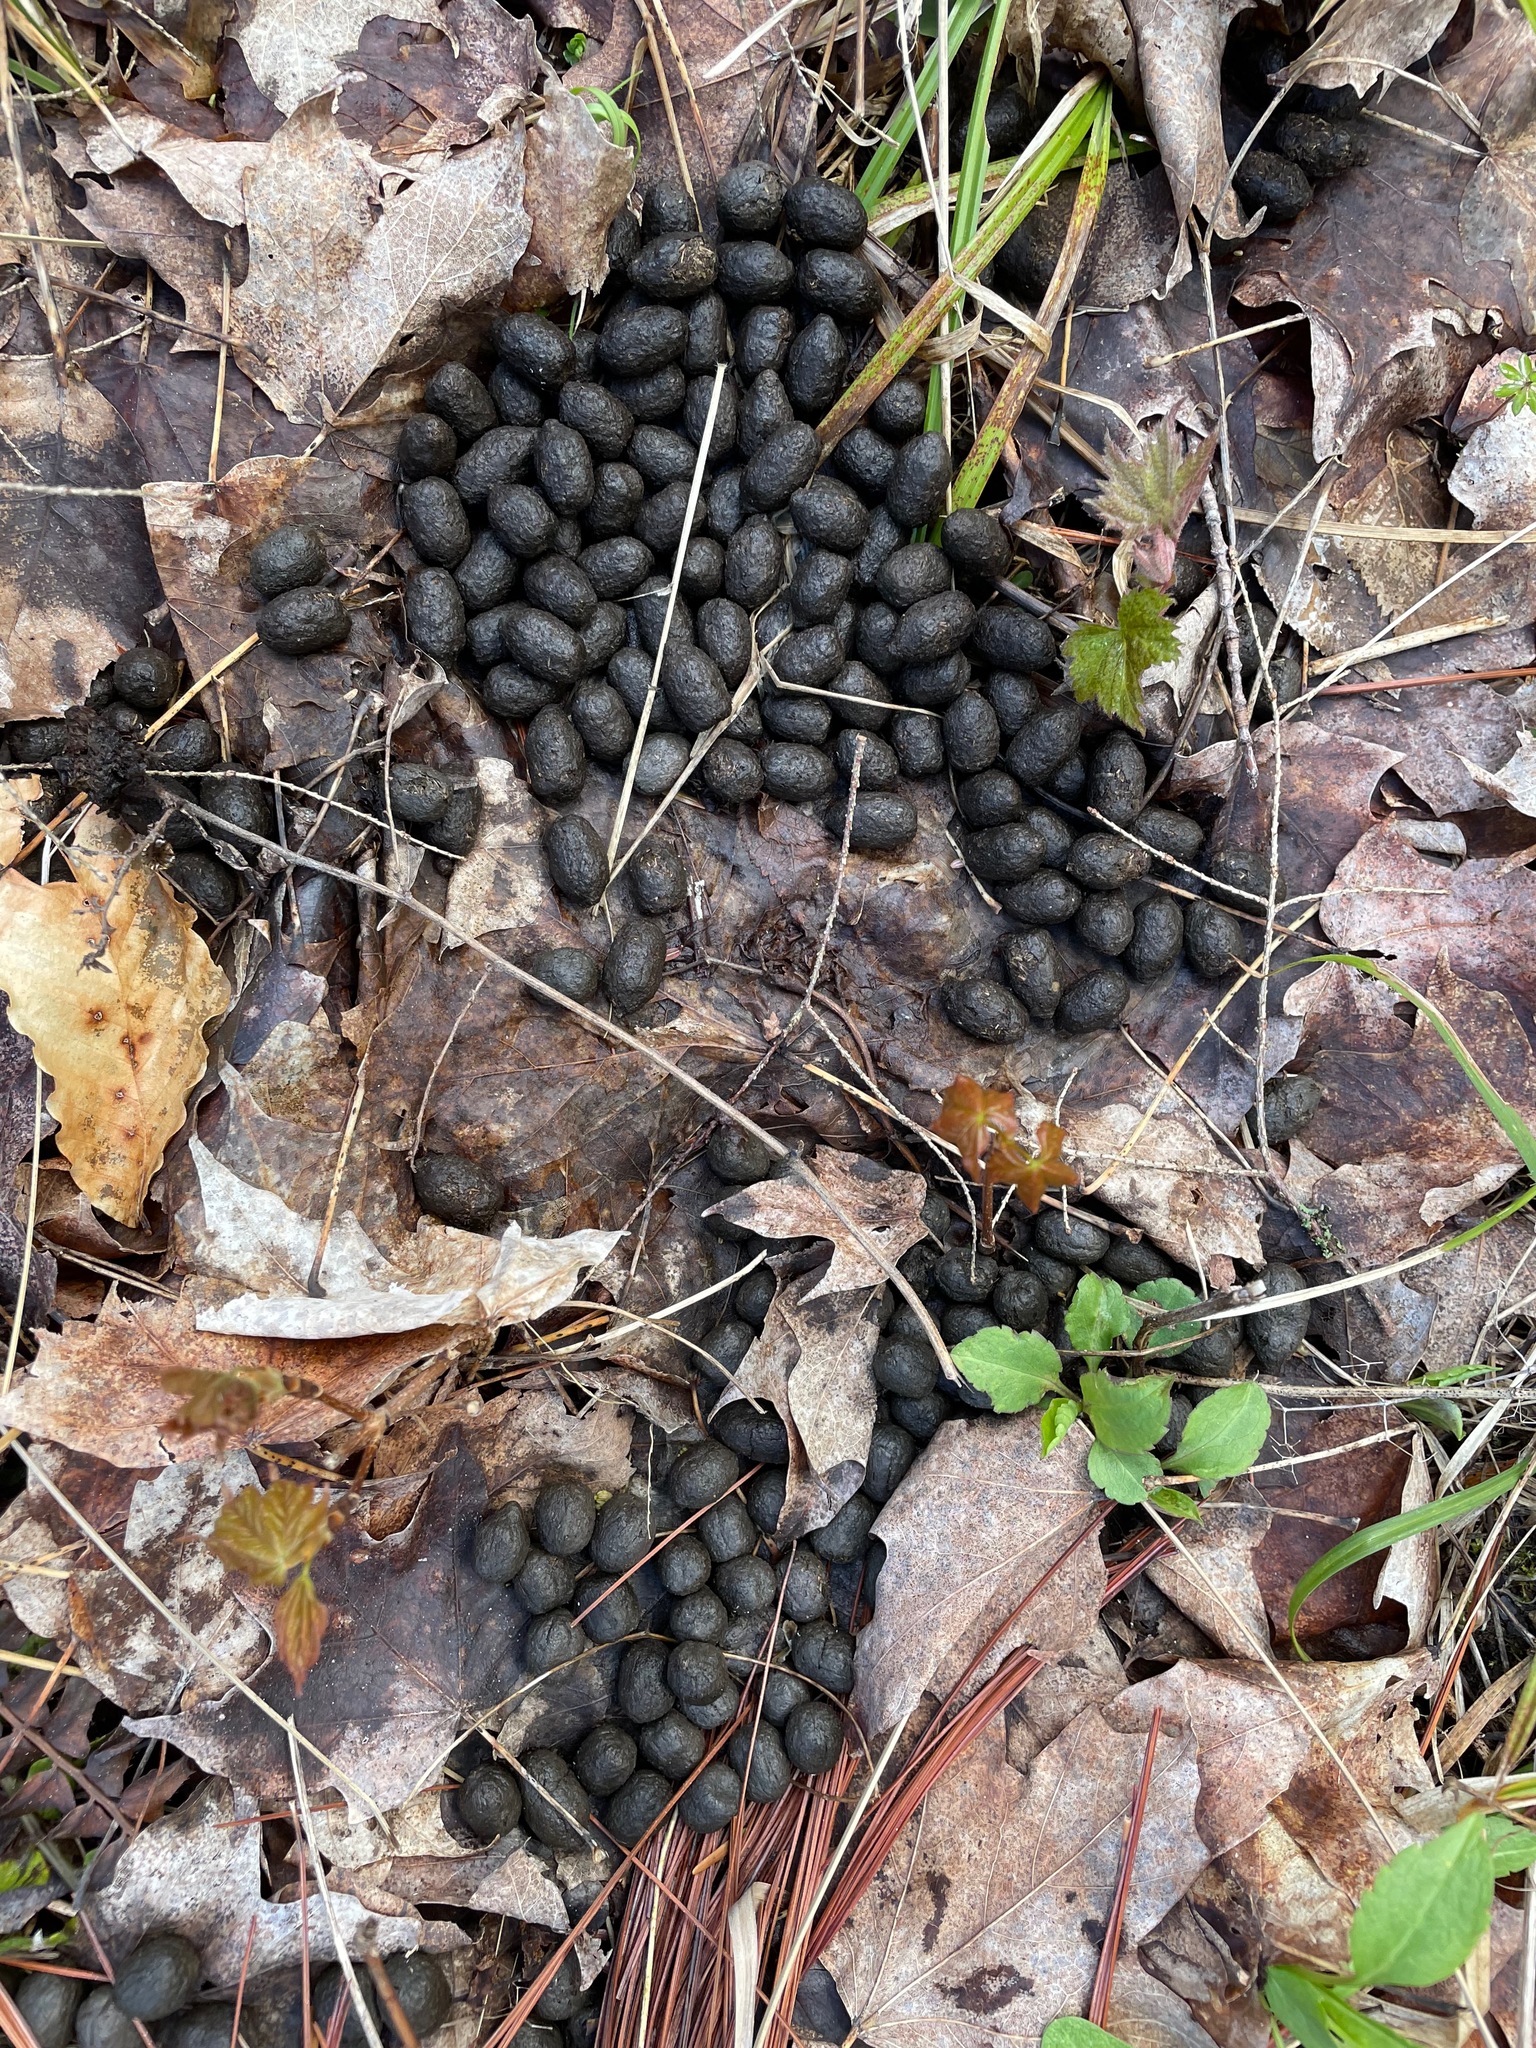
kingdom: Animalia
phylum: Chordata
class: Mammalia
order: Artiodactyla
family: Cervidae
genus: Odocoileus
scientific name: Odocoileus virginianus
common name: White-tailed deer
